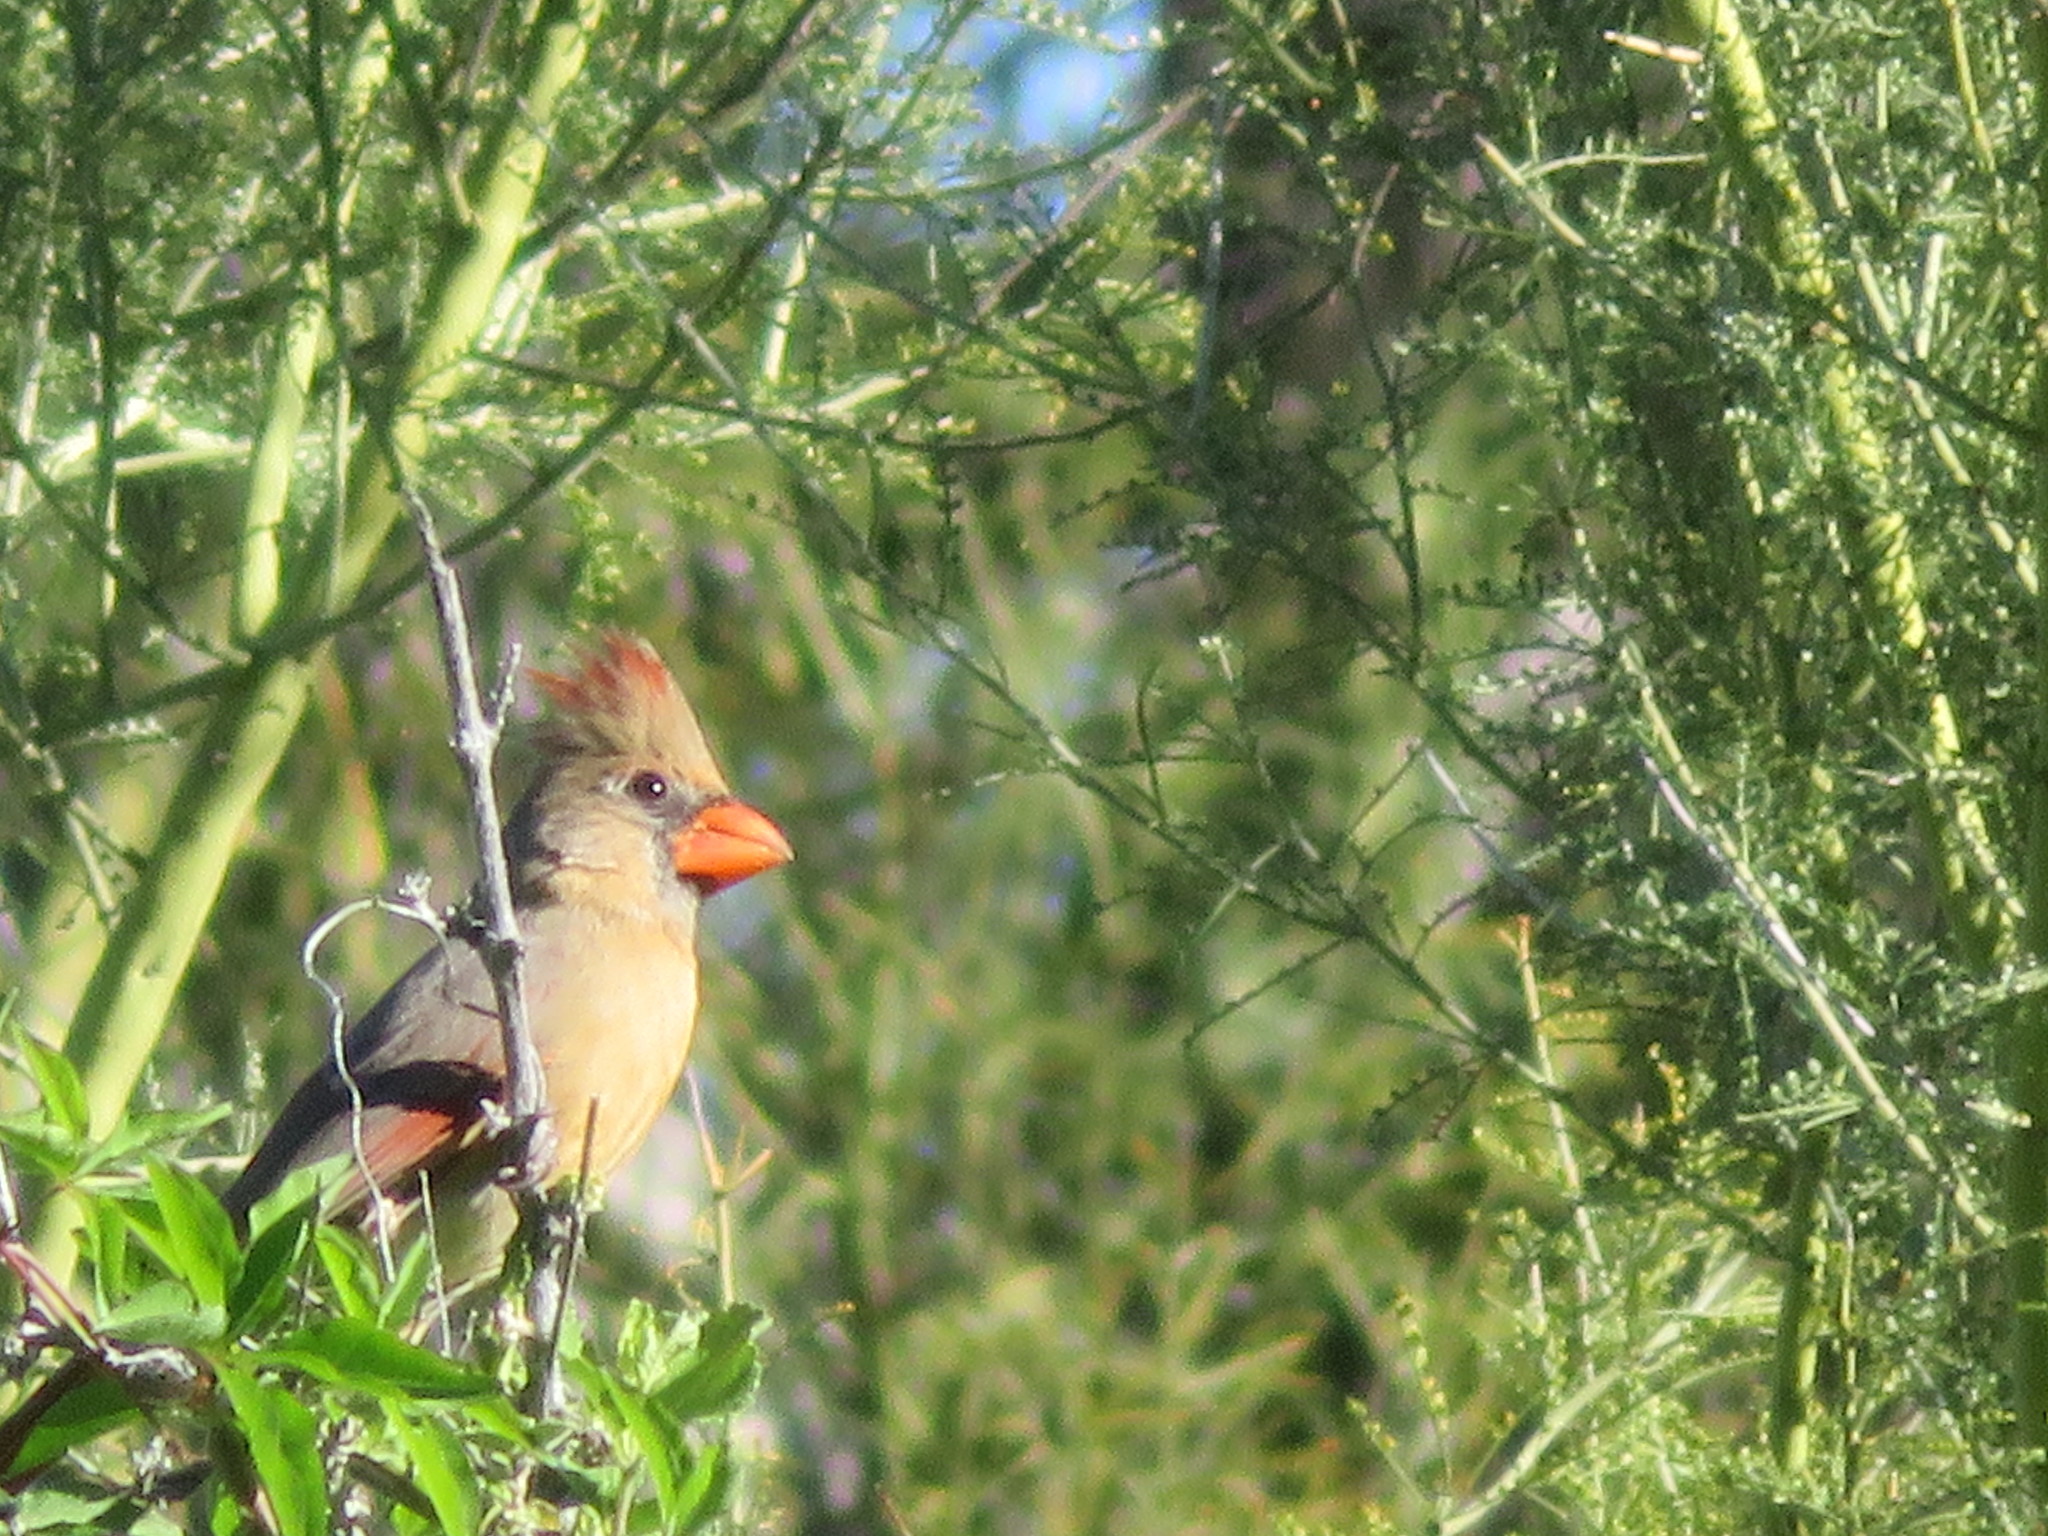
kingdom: Animalia
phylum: Chordata
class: Aves
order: Passeriformes
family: Cardinalidae
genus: Cardinalis
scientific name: Cardinalis cardinalis
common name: Northern cardinal
